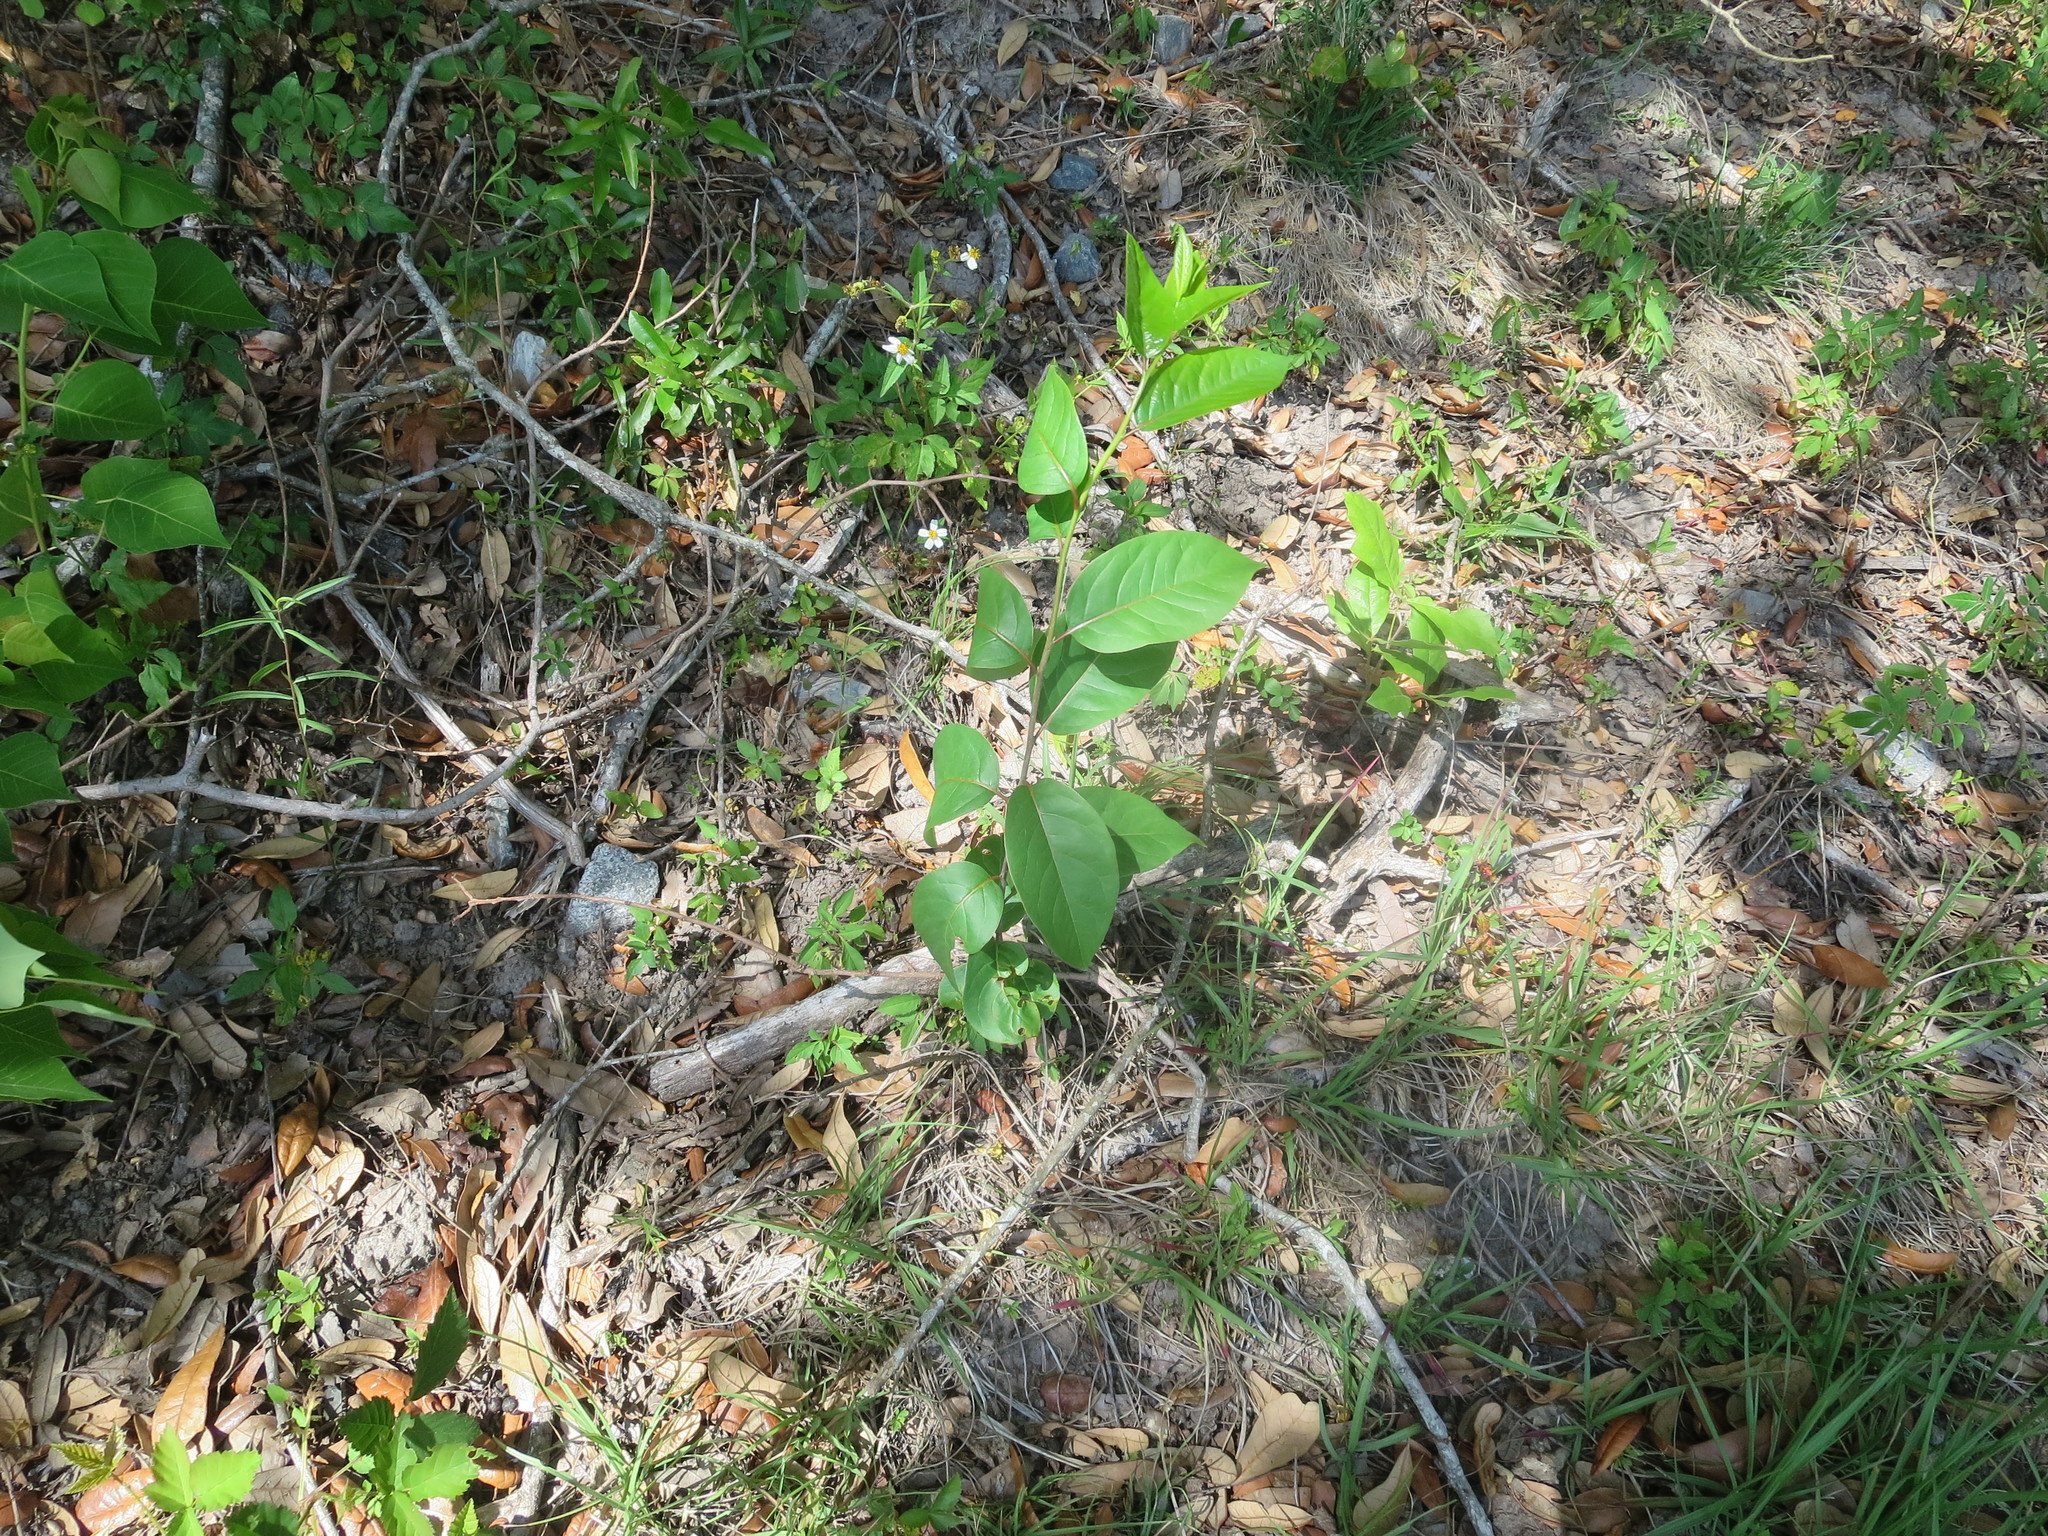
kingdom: Plantae
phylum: Tracheophyta
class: Magnoliopsida
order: Ericales
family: Ebenaceae
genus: Diospyros
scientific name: Diospyros virginiana
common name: Persimmon
